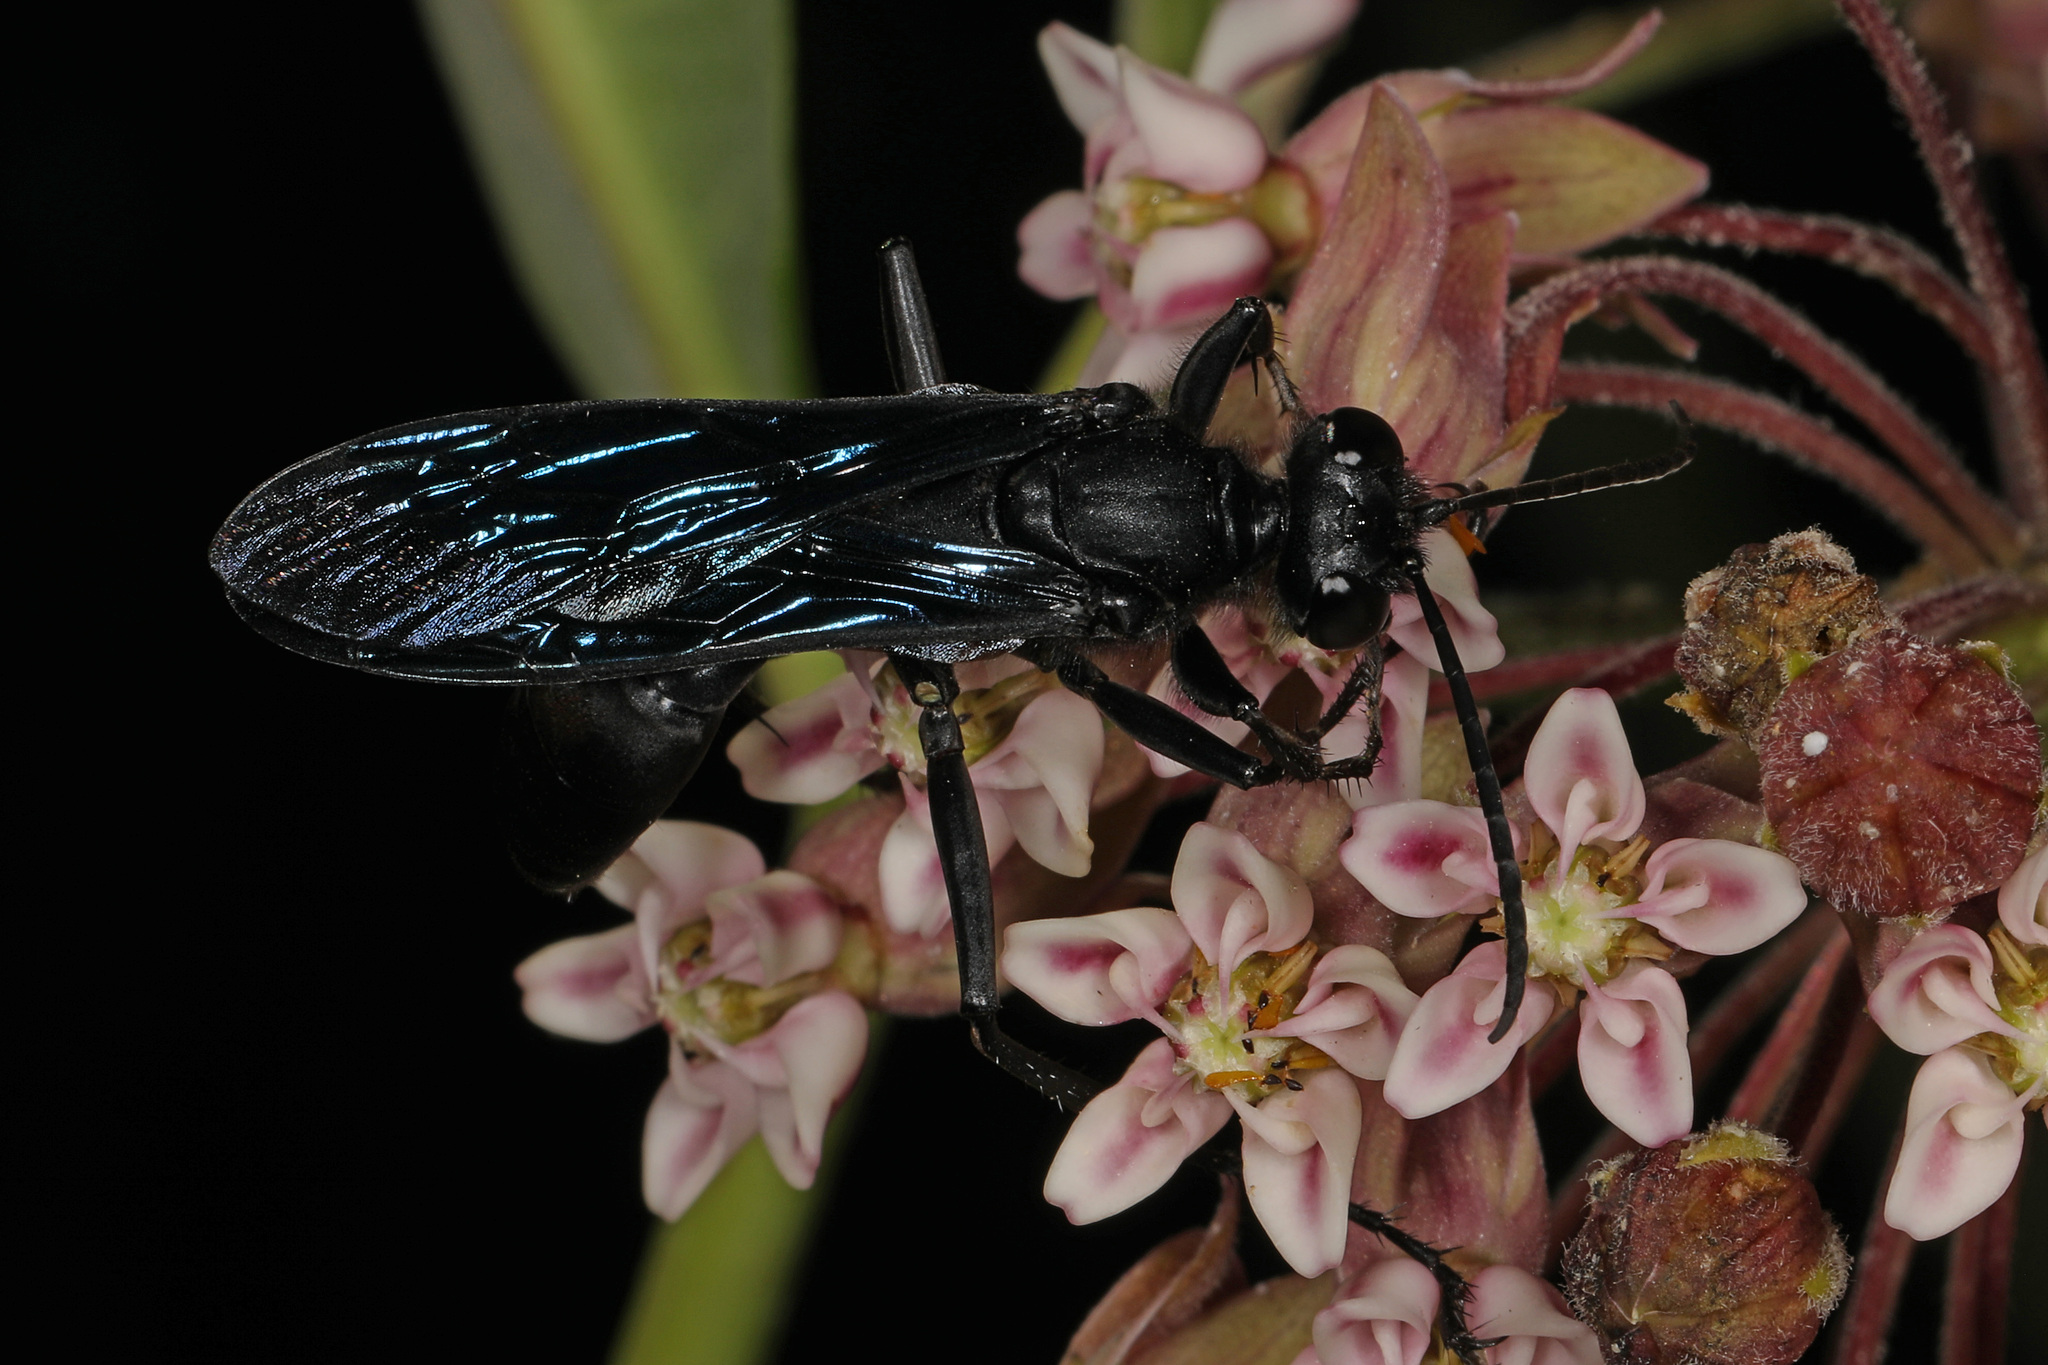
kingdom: Animalia
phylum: Arthropoda
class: Insecta
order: Hymenoptera
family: Sphecidae
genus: Sphex
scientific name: Sphex pensylvanicus
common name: Great black digger wasp
